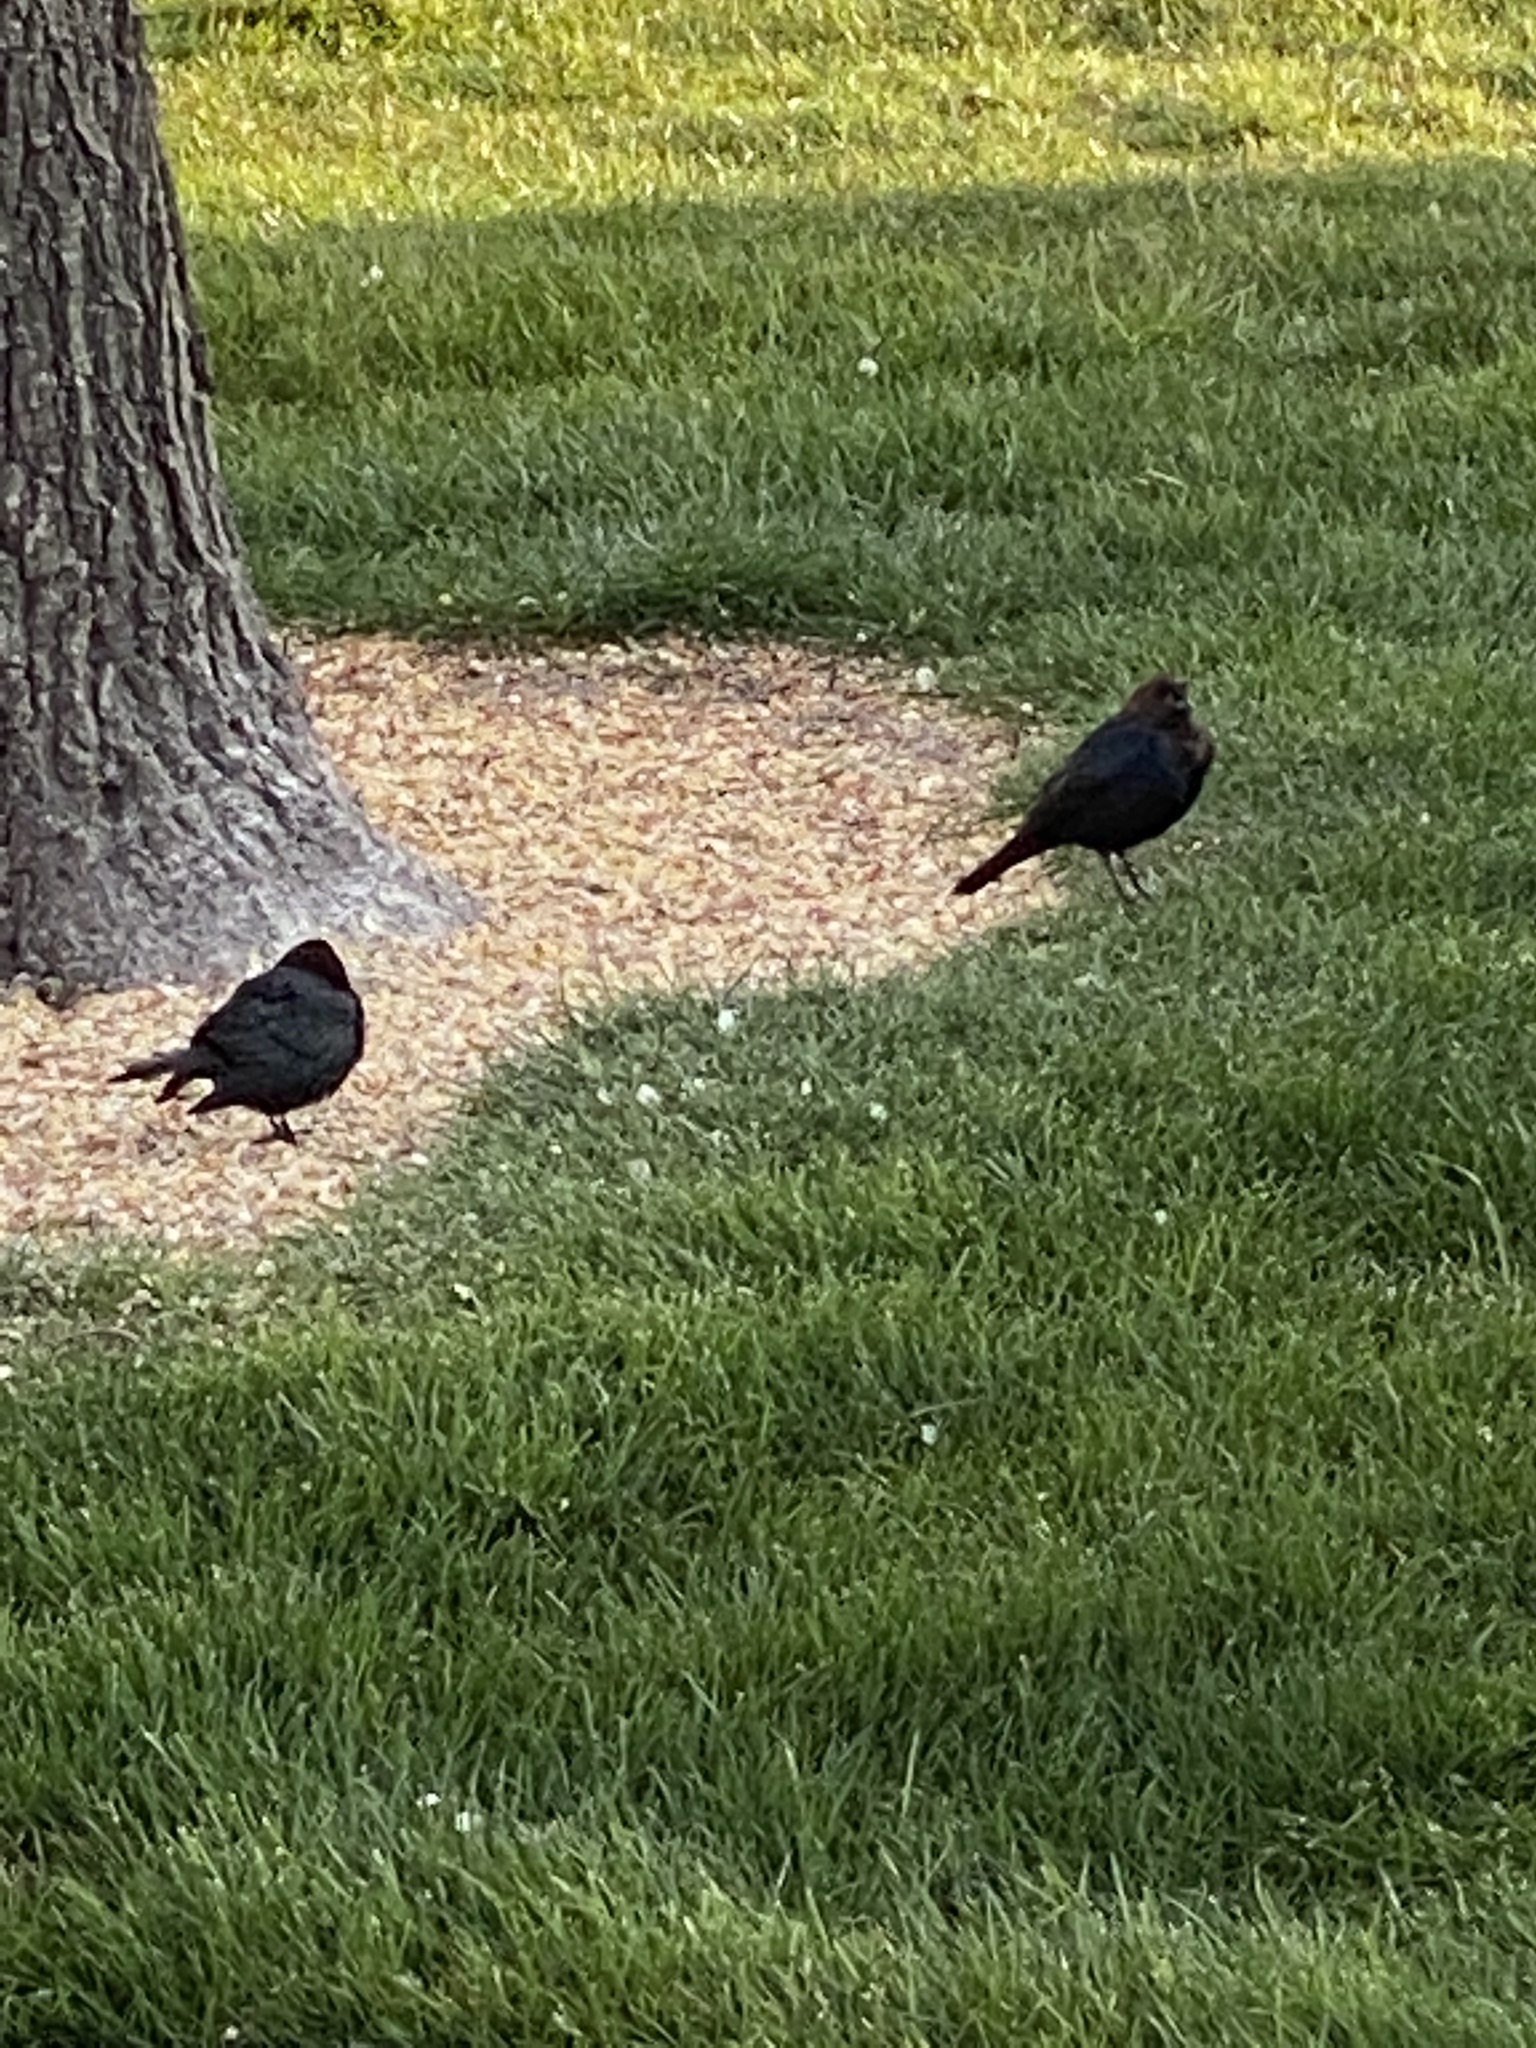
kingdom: Animalia
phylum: Chordata
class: Aves
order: Passeriformes
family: Icteridae
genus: Molothrus
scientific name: Molothrus ater
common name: Brown-headed cowbird
